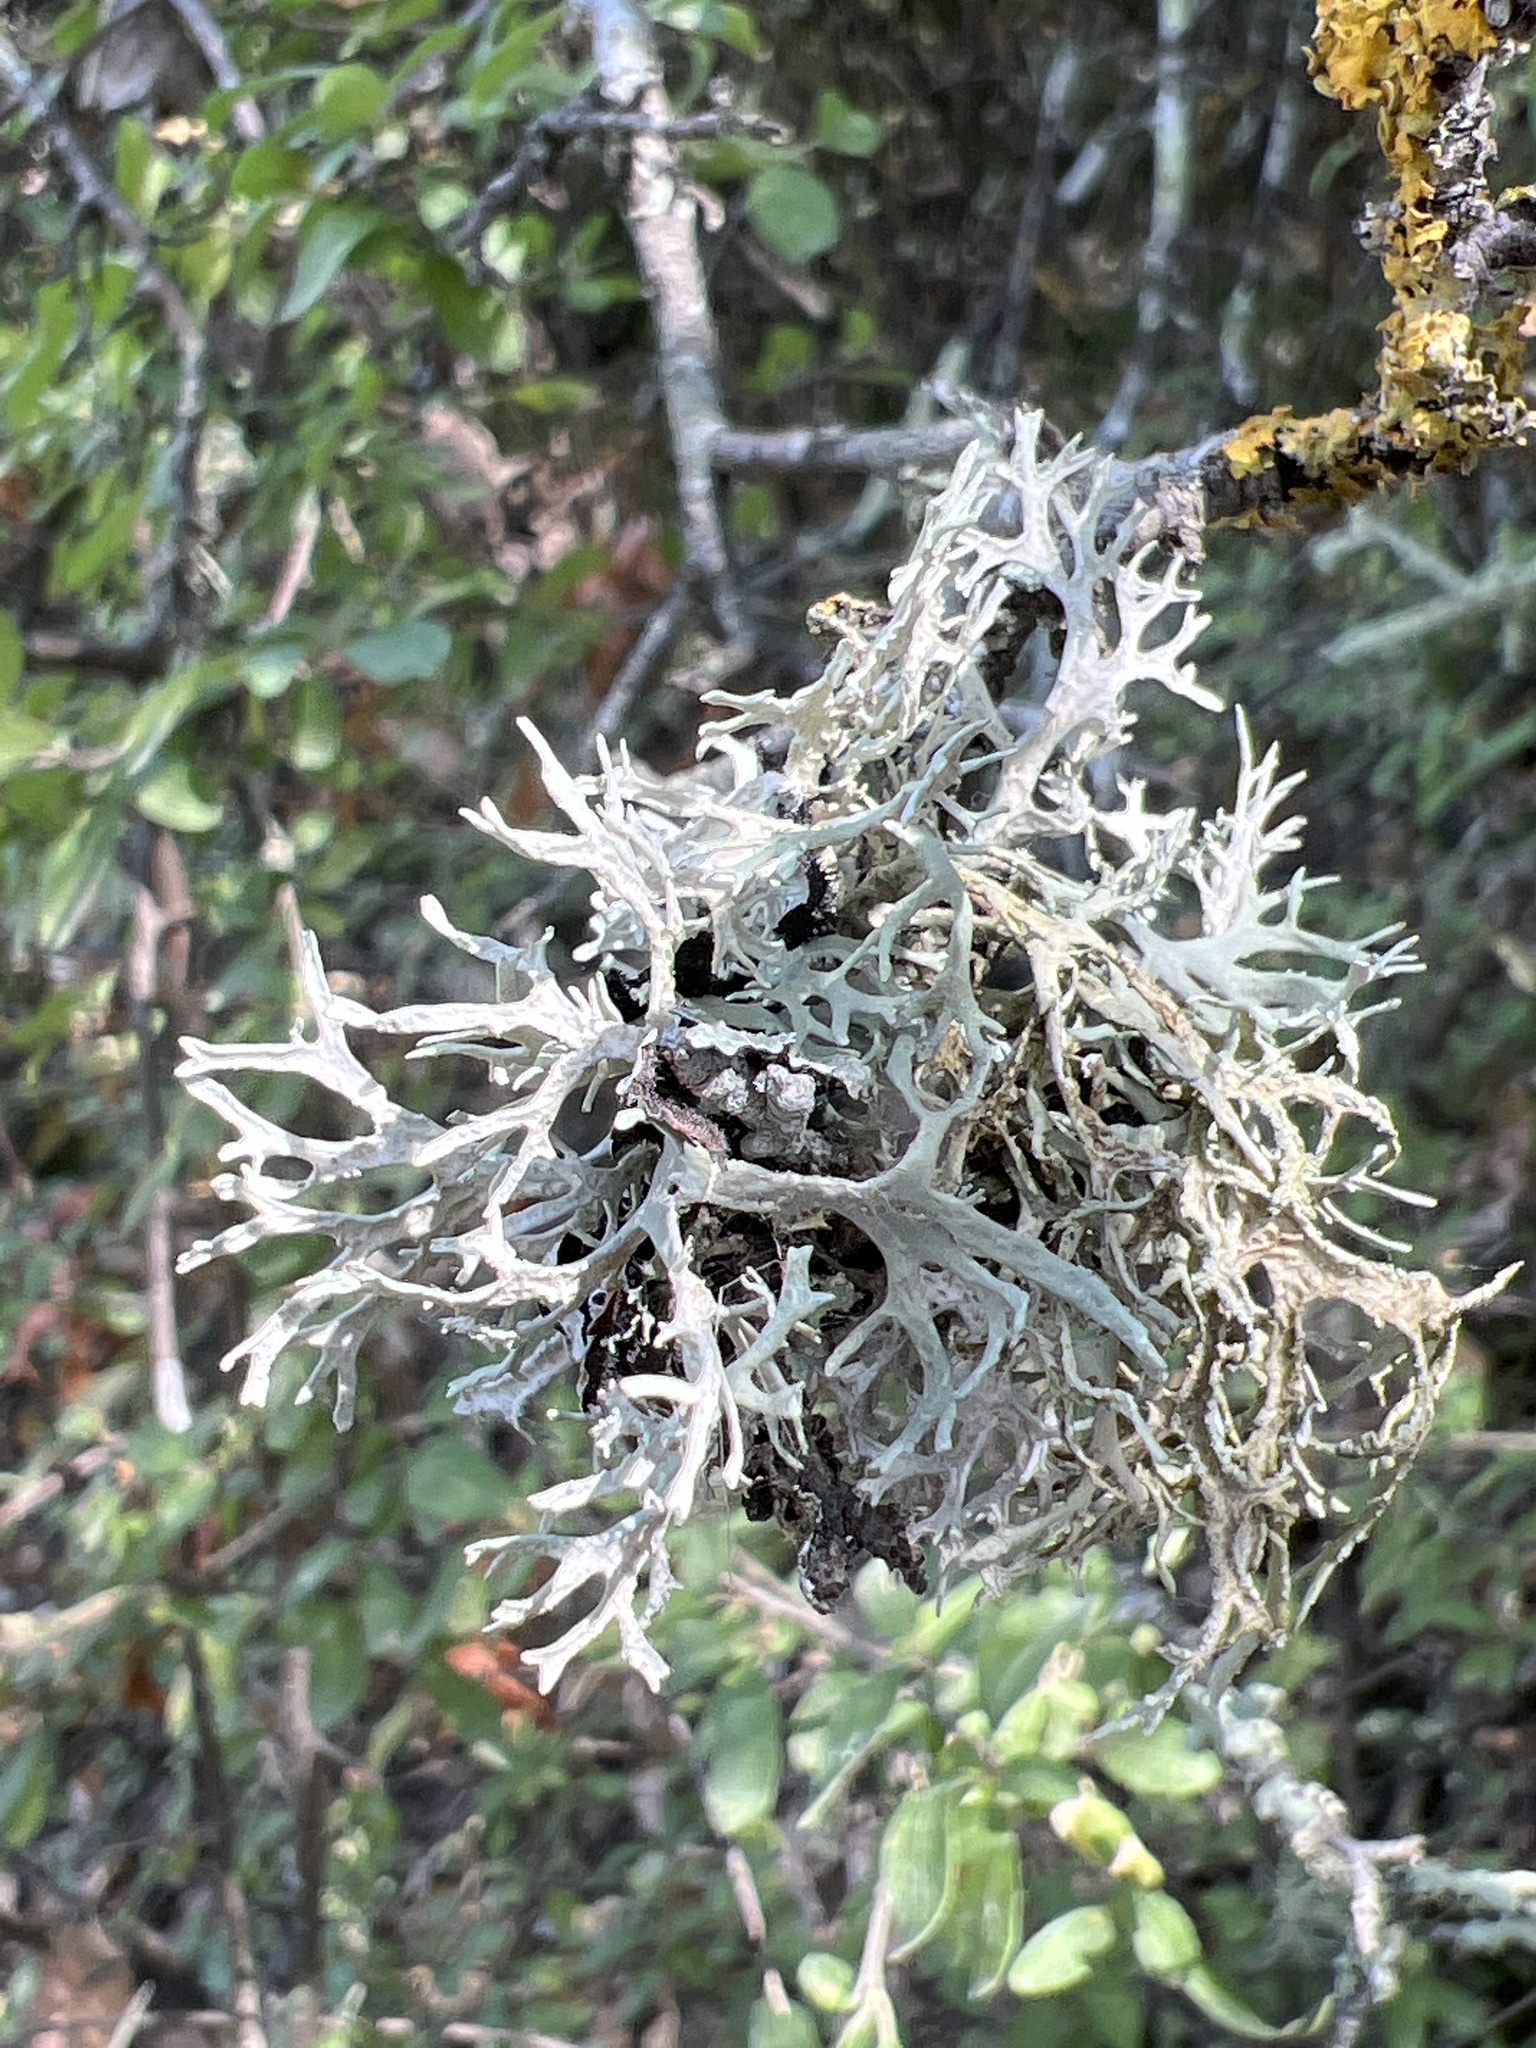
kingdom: Fungi
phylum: Ascomycota
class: Lecanoromycetes
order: Lecanorales
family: Parmeliaceae
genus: Evernia
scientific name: Evernia prunastri
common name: Oak moss
